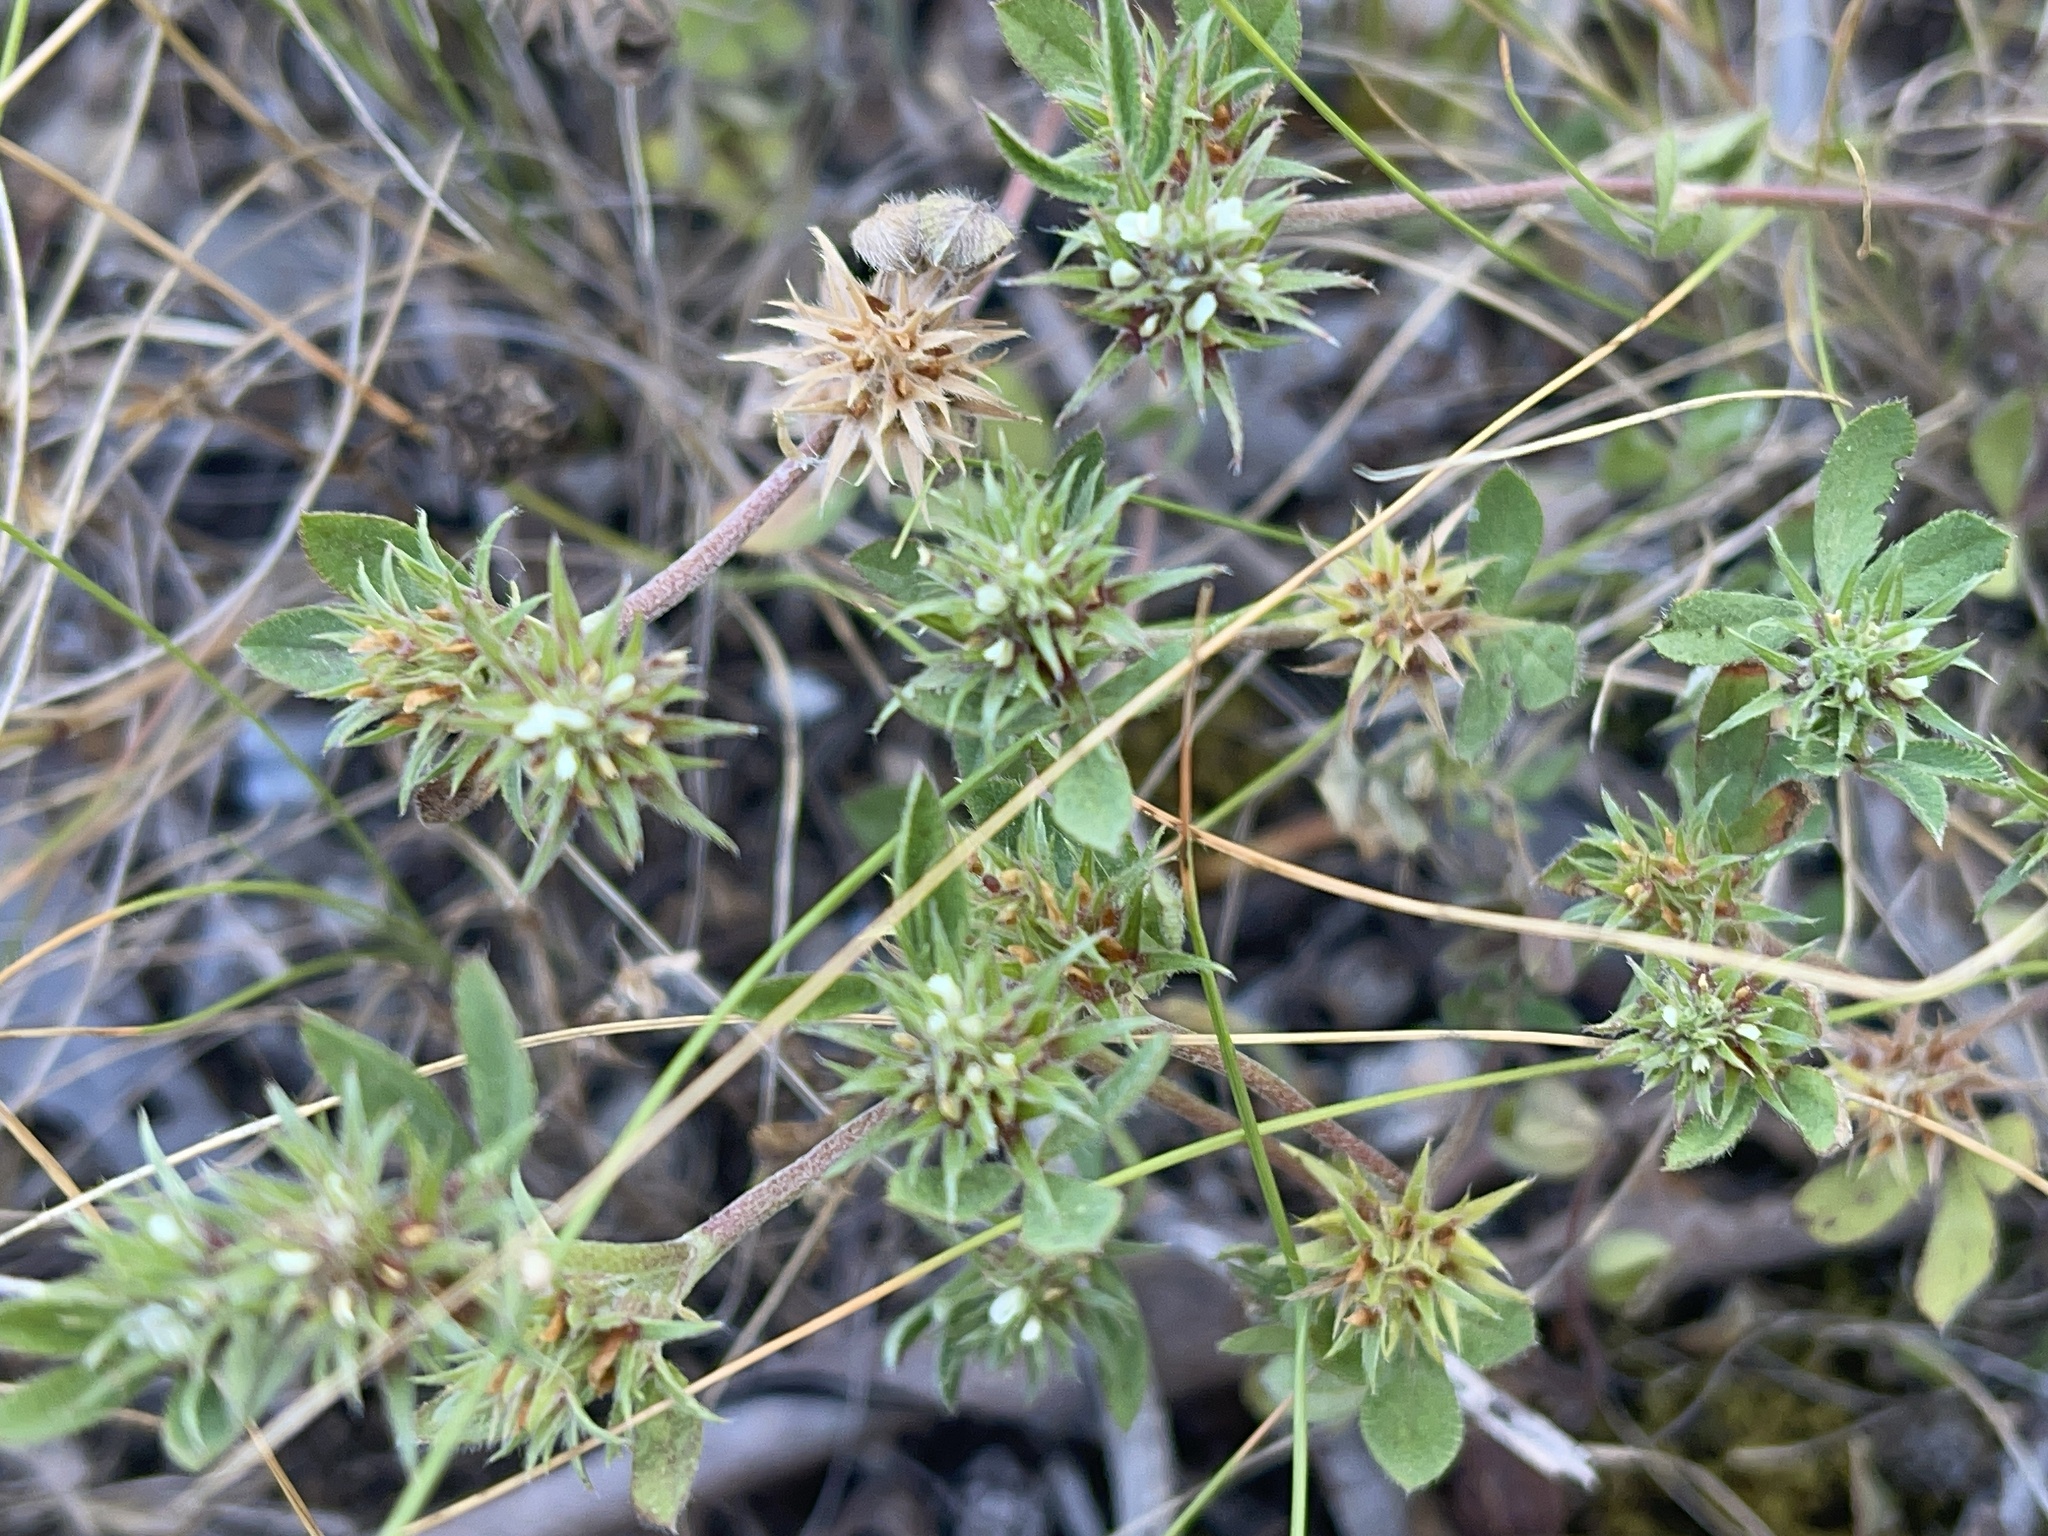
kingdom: Plantae
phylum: Tracheophyta
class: Magnoliopsida
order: Fabales
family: Fabaceae
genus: Trifolium
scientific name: Trifolium scabrum
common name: Rough clover
